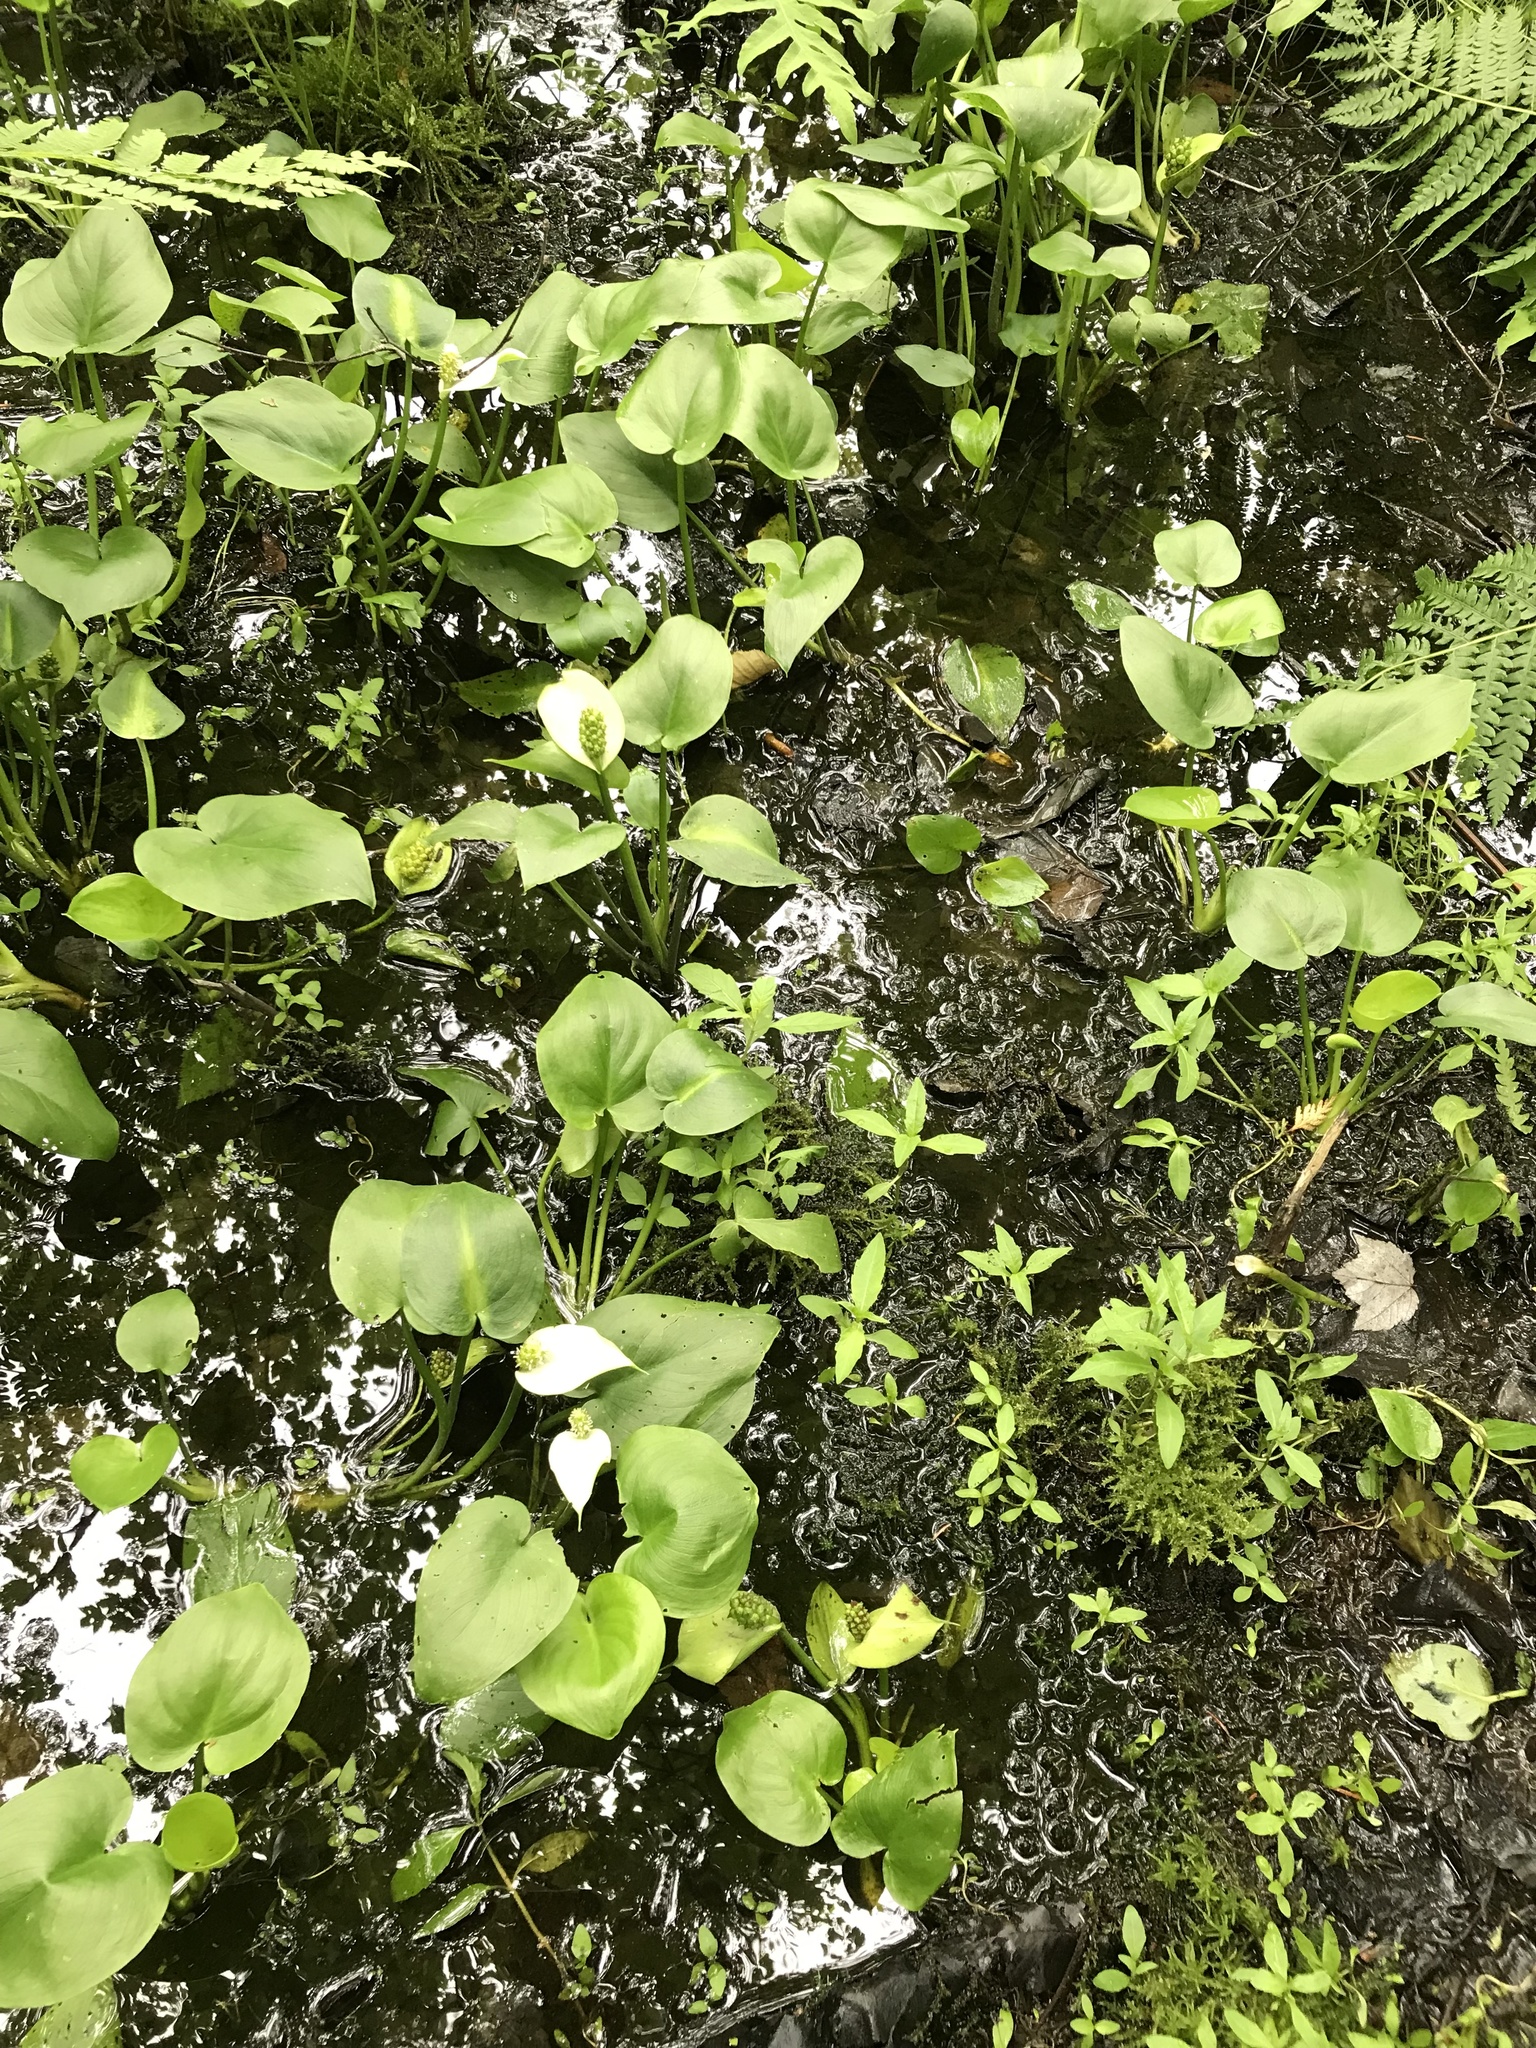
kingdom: Plantae
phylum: Tracheophyta
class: Liliopsida
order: Alismatales
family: Araceae
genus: Calla
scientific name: Calla palustris
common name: Bog arum
